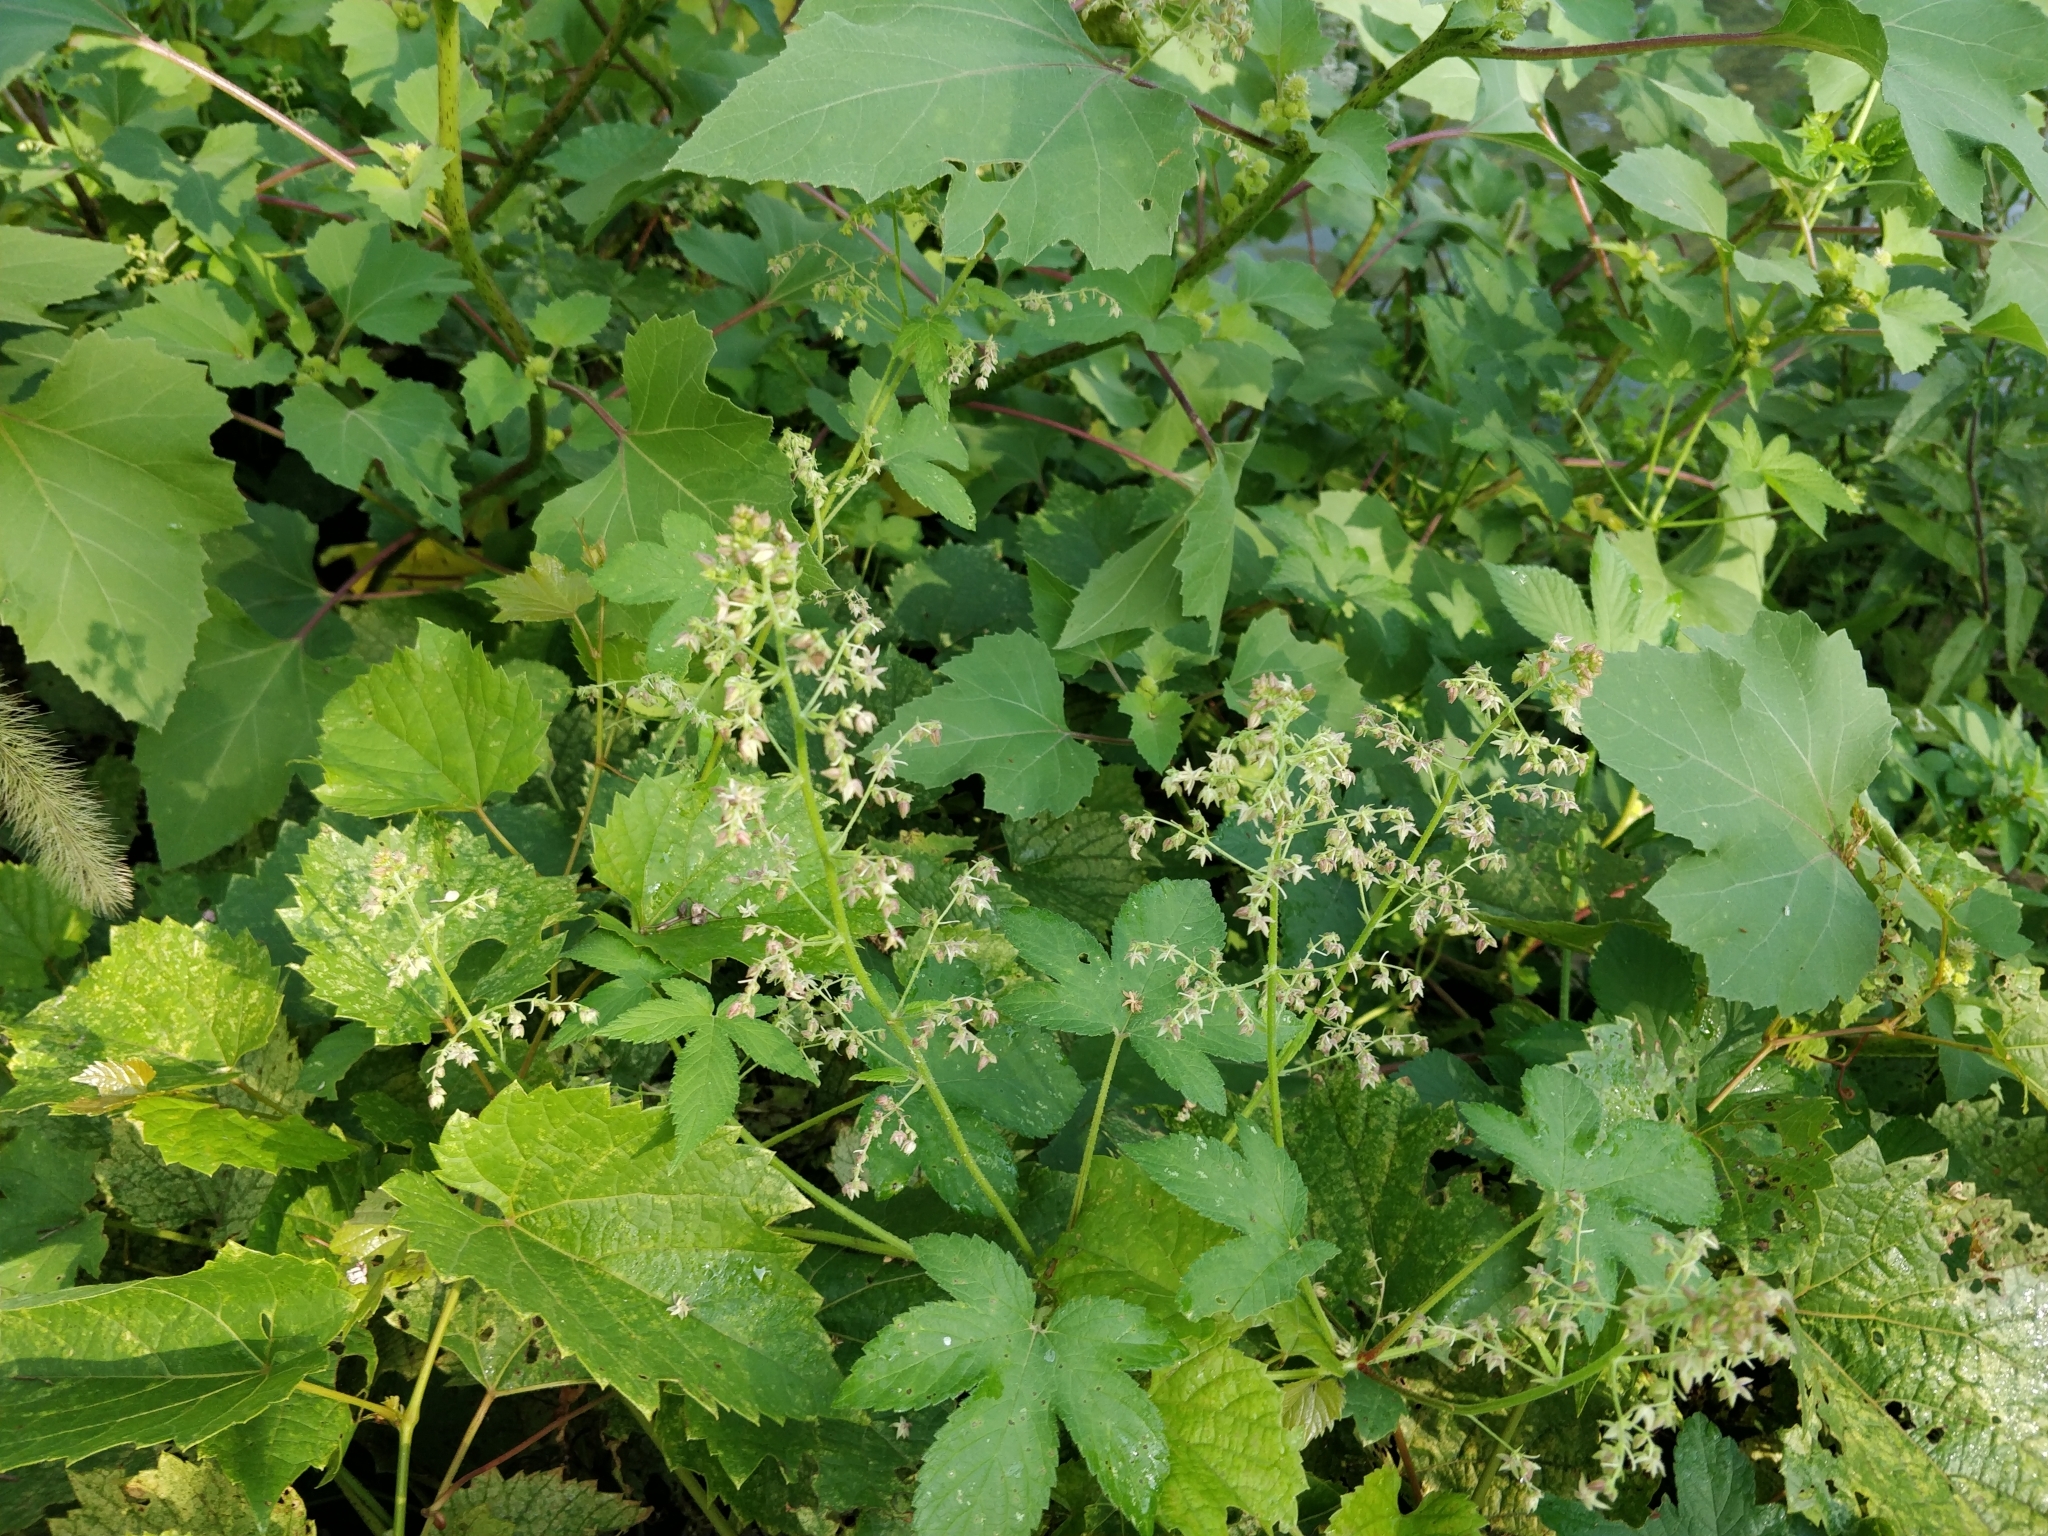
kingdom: Plantae
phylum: Tracheophyta
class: Magnoliopsida
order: Rosales
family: Cannabaceae
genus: Humulus
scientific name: Humulus scandens
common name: Japanese hop
